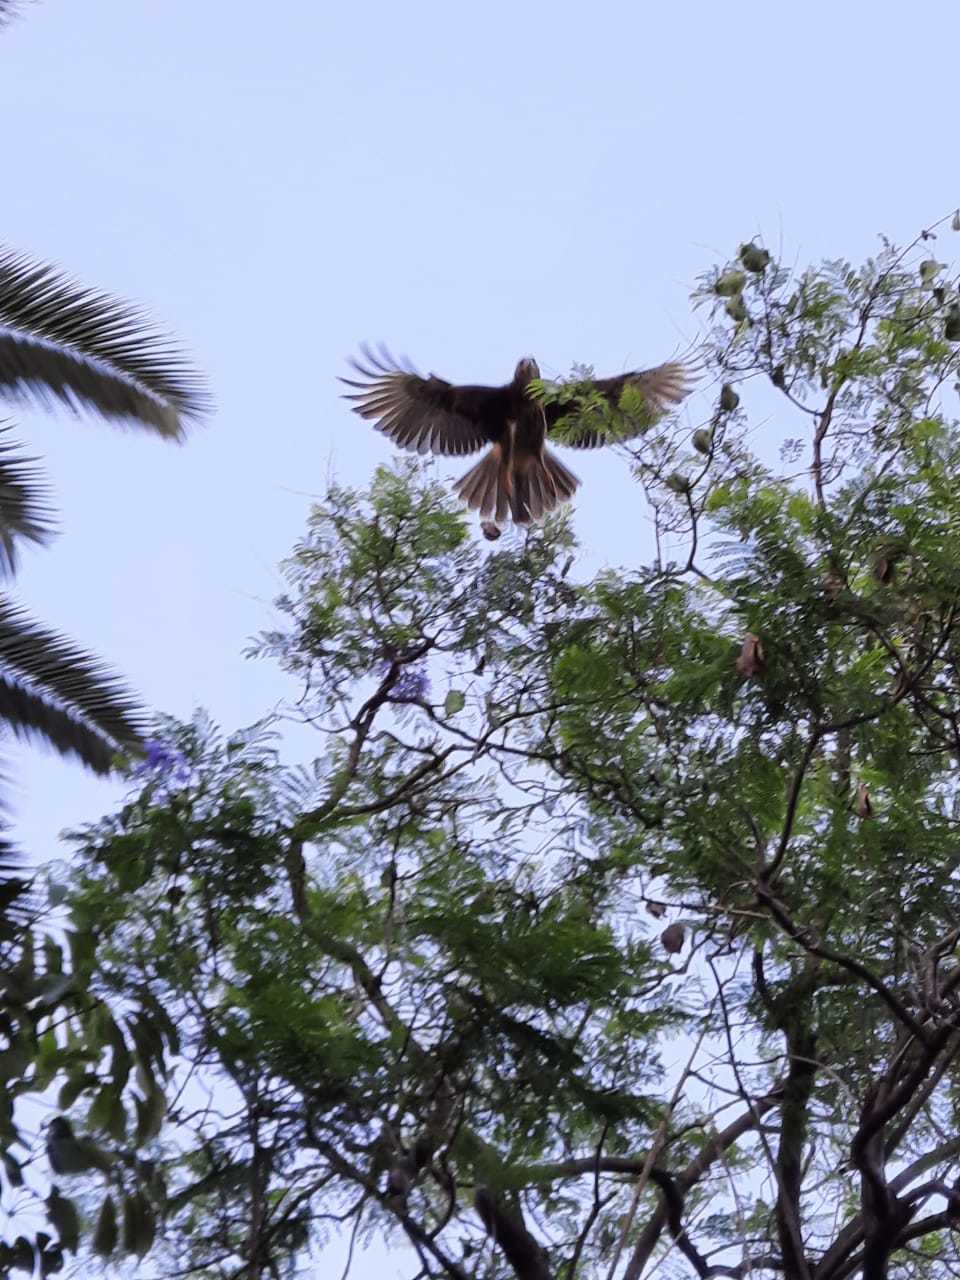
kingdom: Animalia
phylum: Chordata
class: Aves
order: Accipitriformes
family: Accipitridae
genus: Parabuteo
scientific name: Parabuteo unicinctus
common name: Harris's hawk
